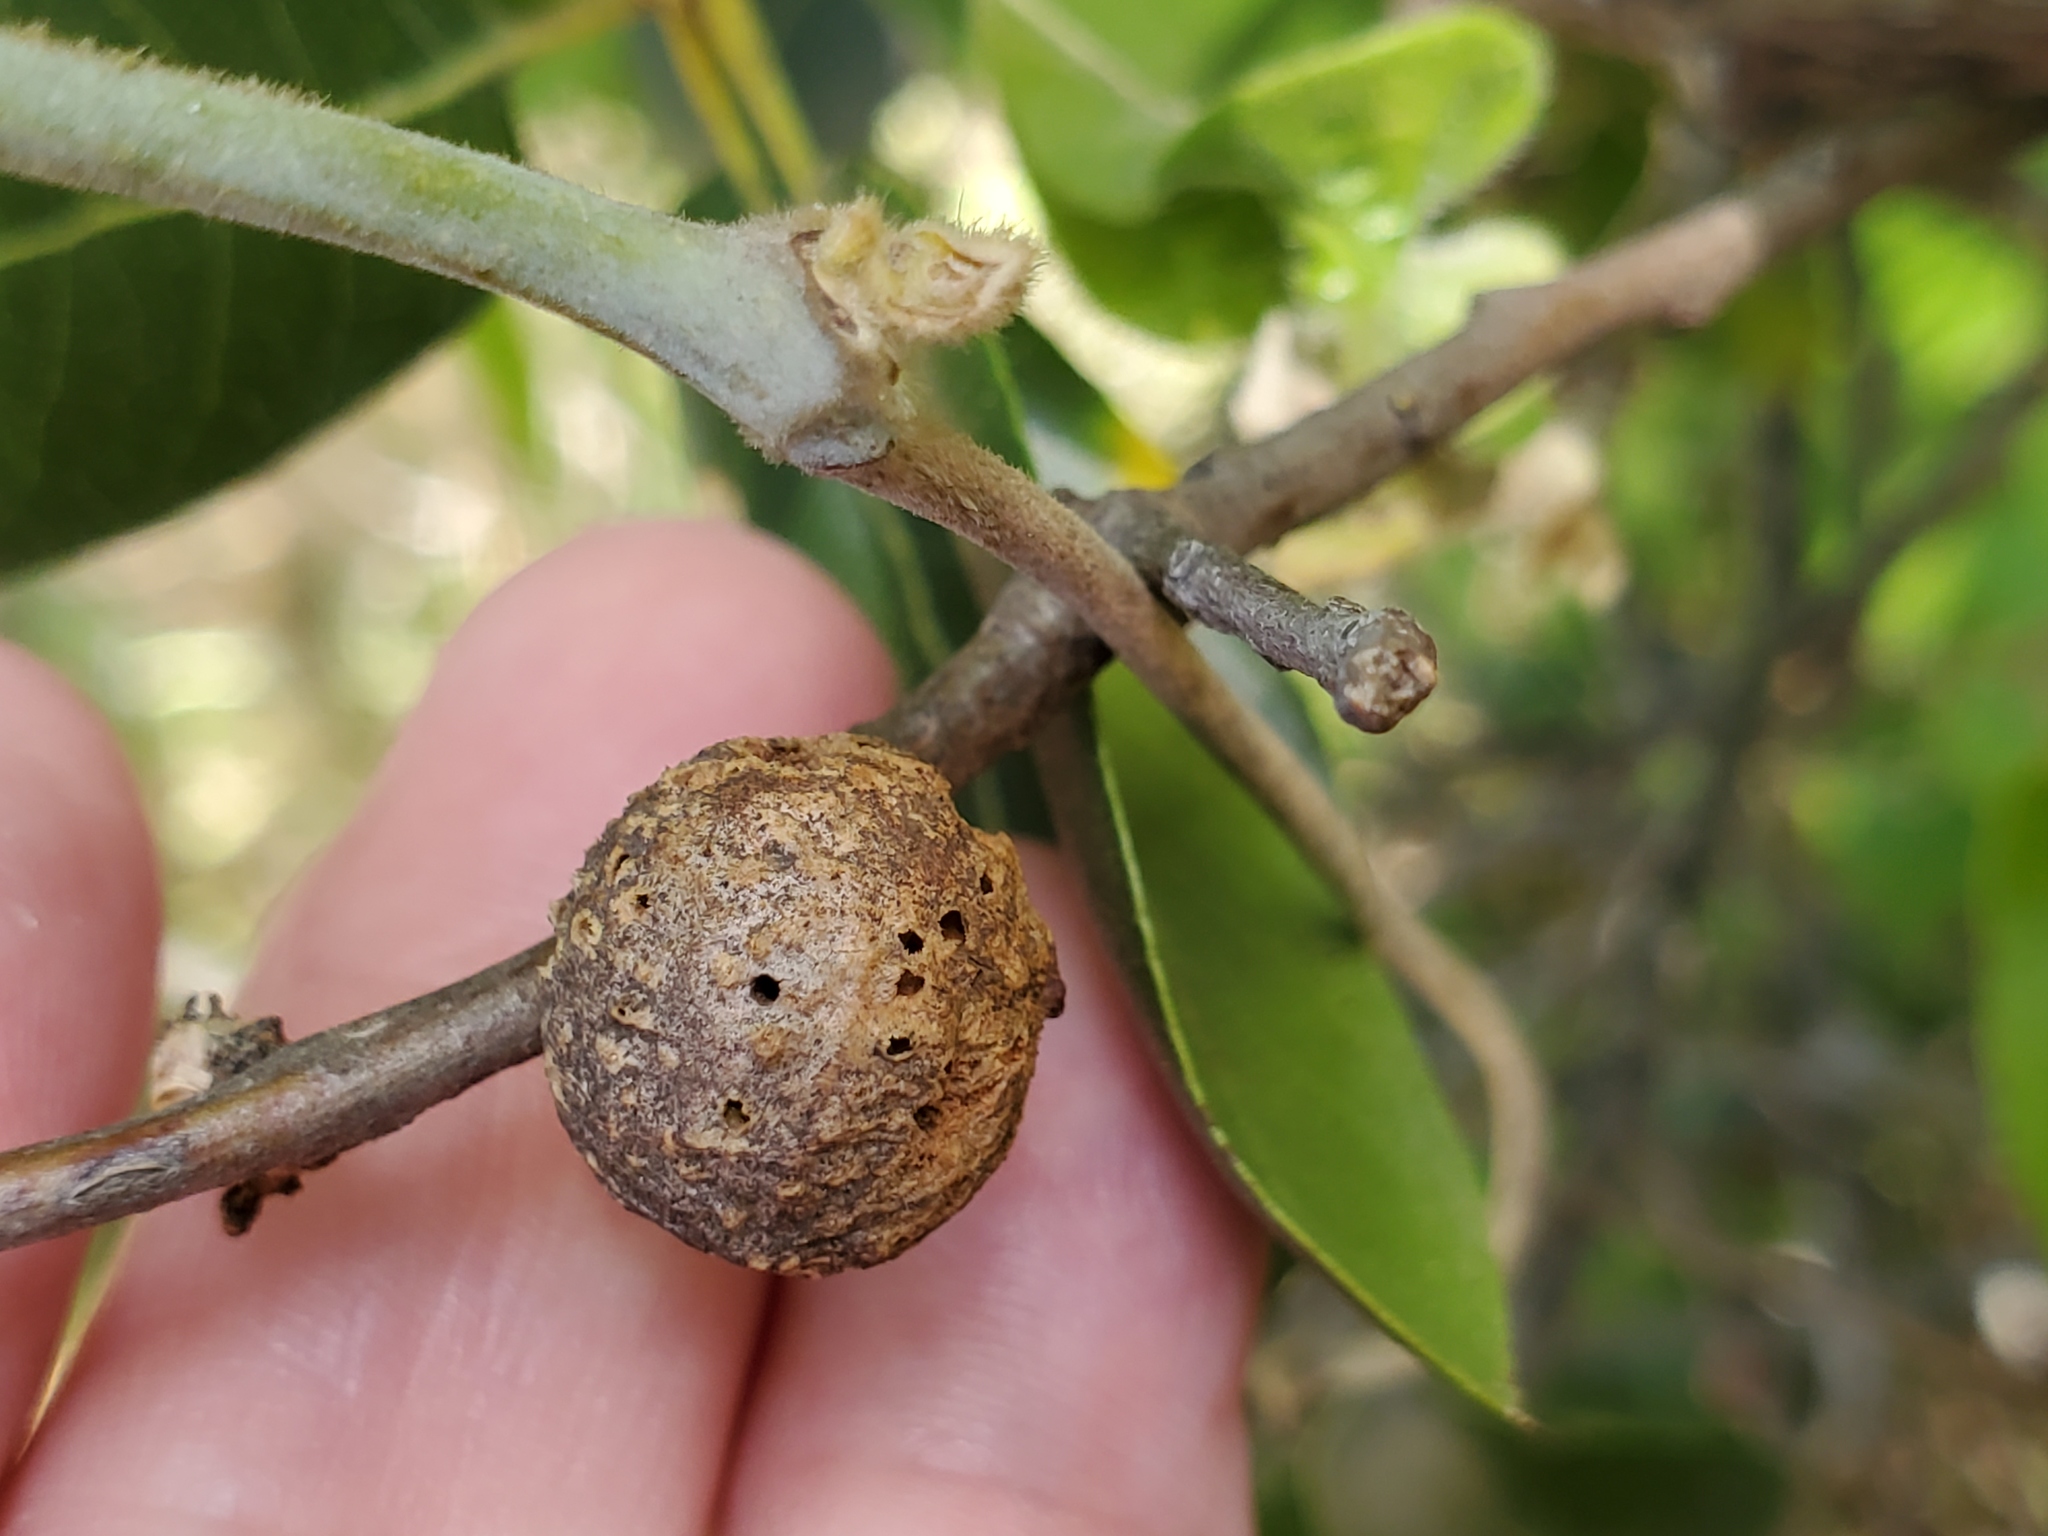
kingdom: Animalia
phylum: Arthropoda
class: Insecta
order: Hymenoptera
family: Cynipidae
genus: Amphibolips
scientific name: Amphibolips quercuspomiformis
